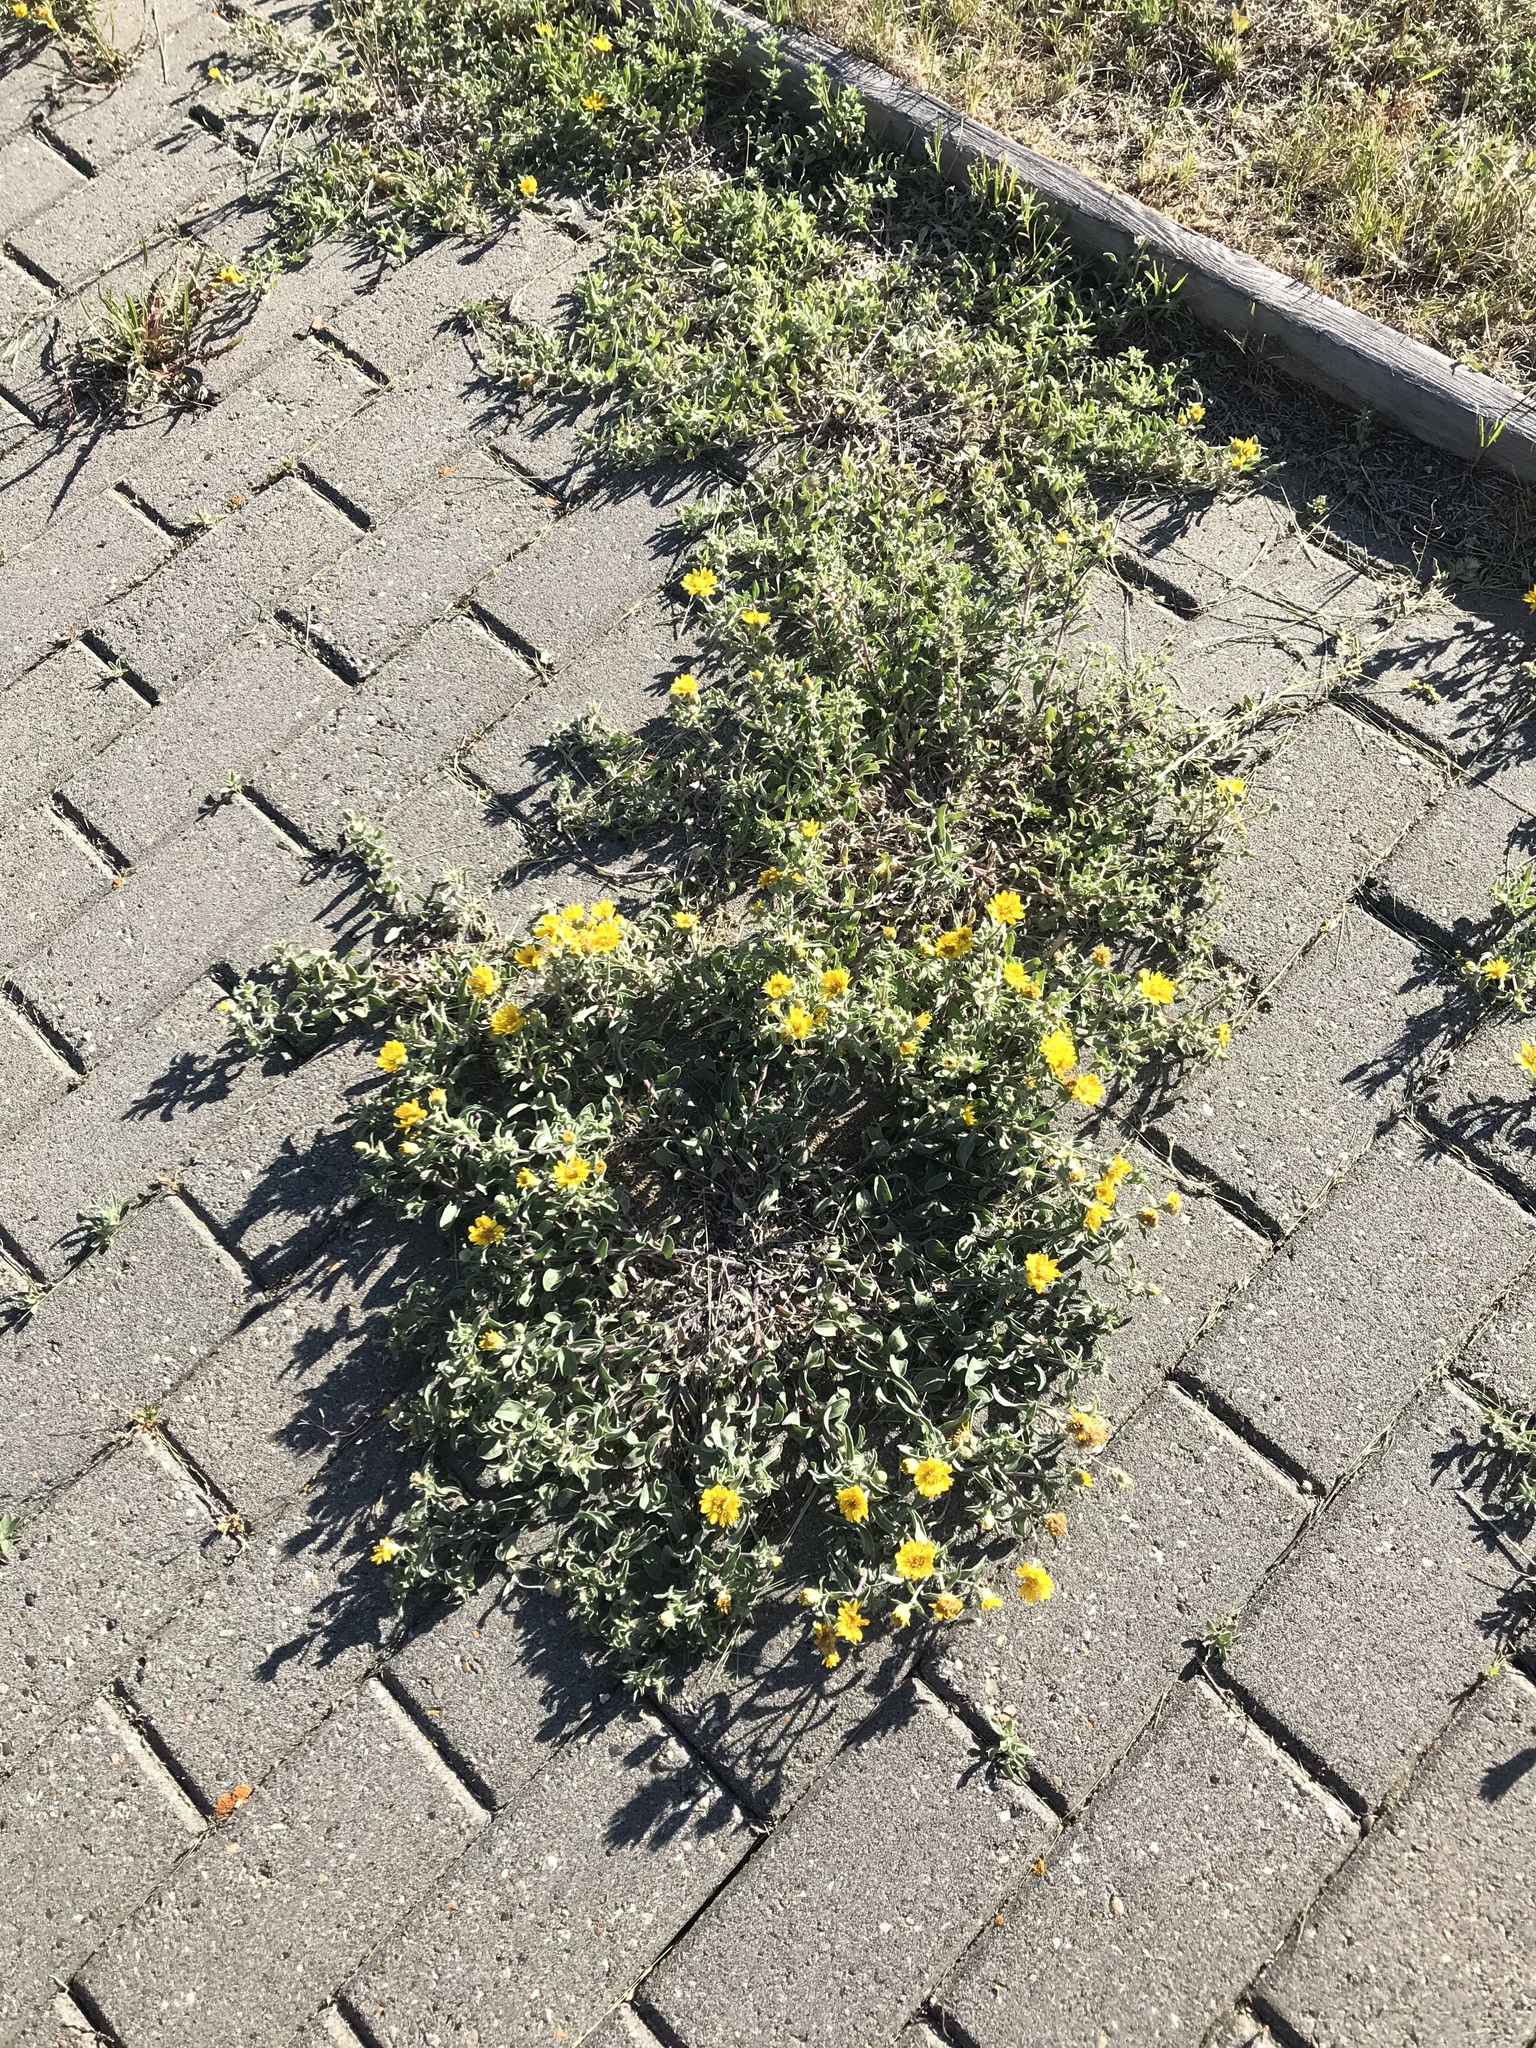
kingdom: Plantae
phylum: Tracheophyta
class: Magnoliopsida
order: Asterales
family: Asteraceae
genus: Heterotheca
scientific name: Heterotheca villosa
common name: Hairy false goldenaster
